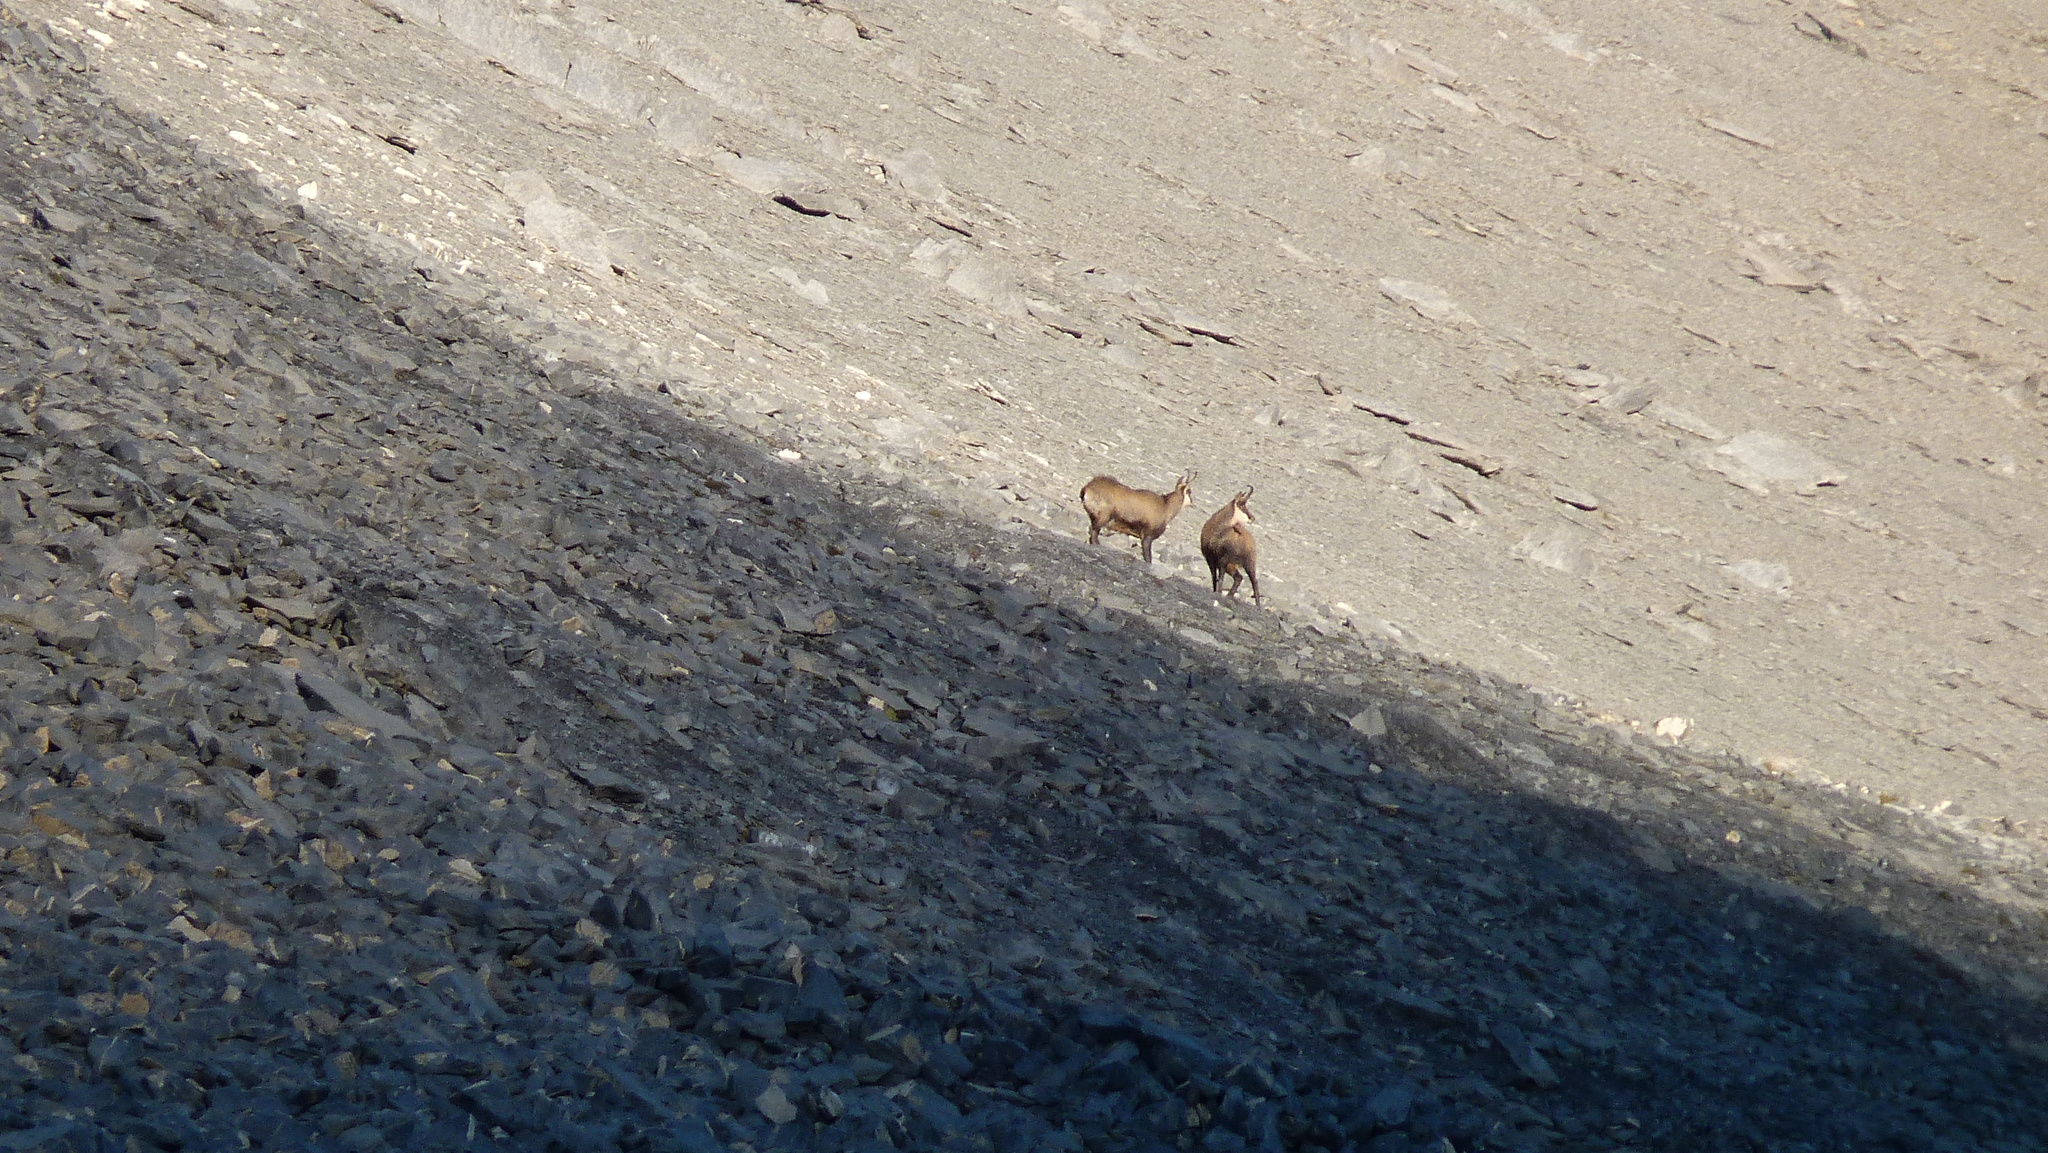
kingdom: Animalia
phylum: Chordata
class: Mammalia
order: Artiodactyla
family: Bovidae
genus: Rupicapra
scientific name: Rupicapra rupicapra
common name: Chamois
